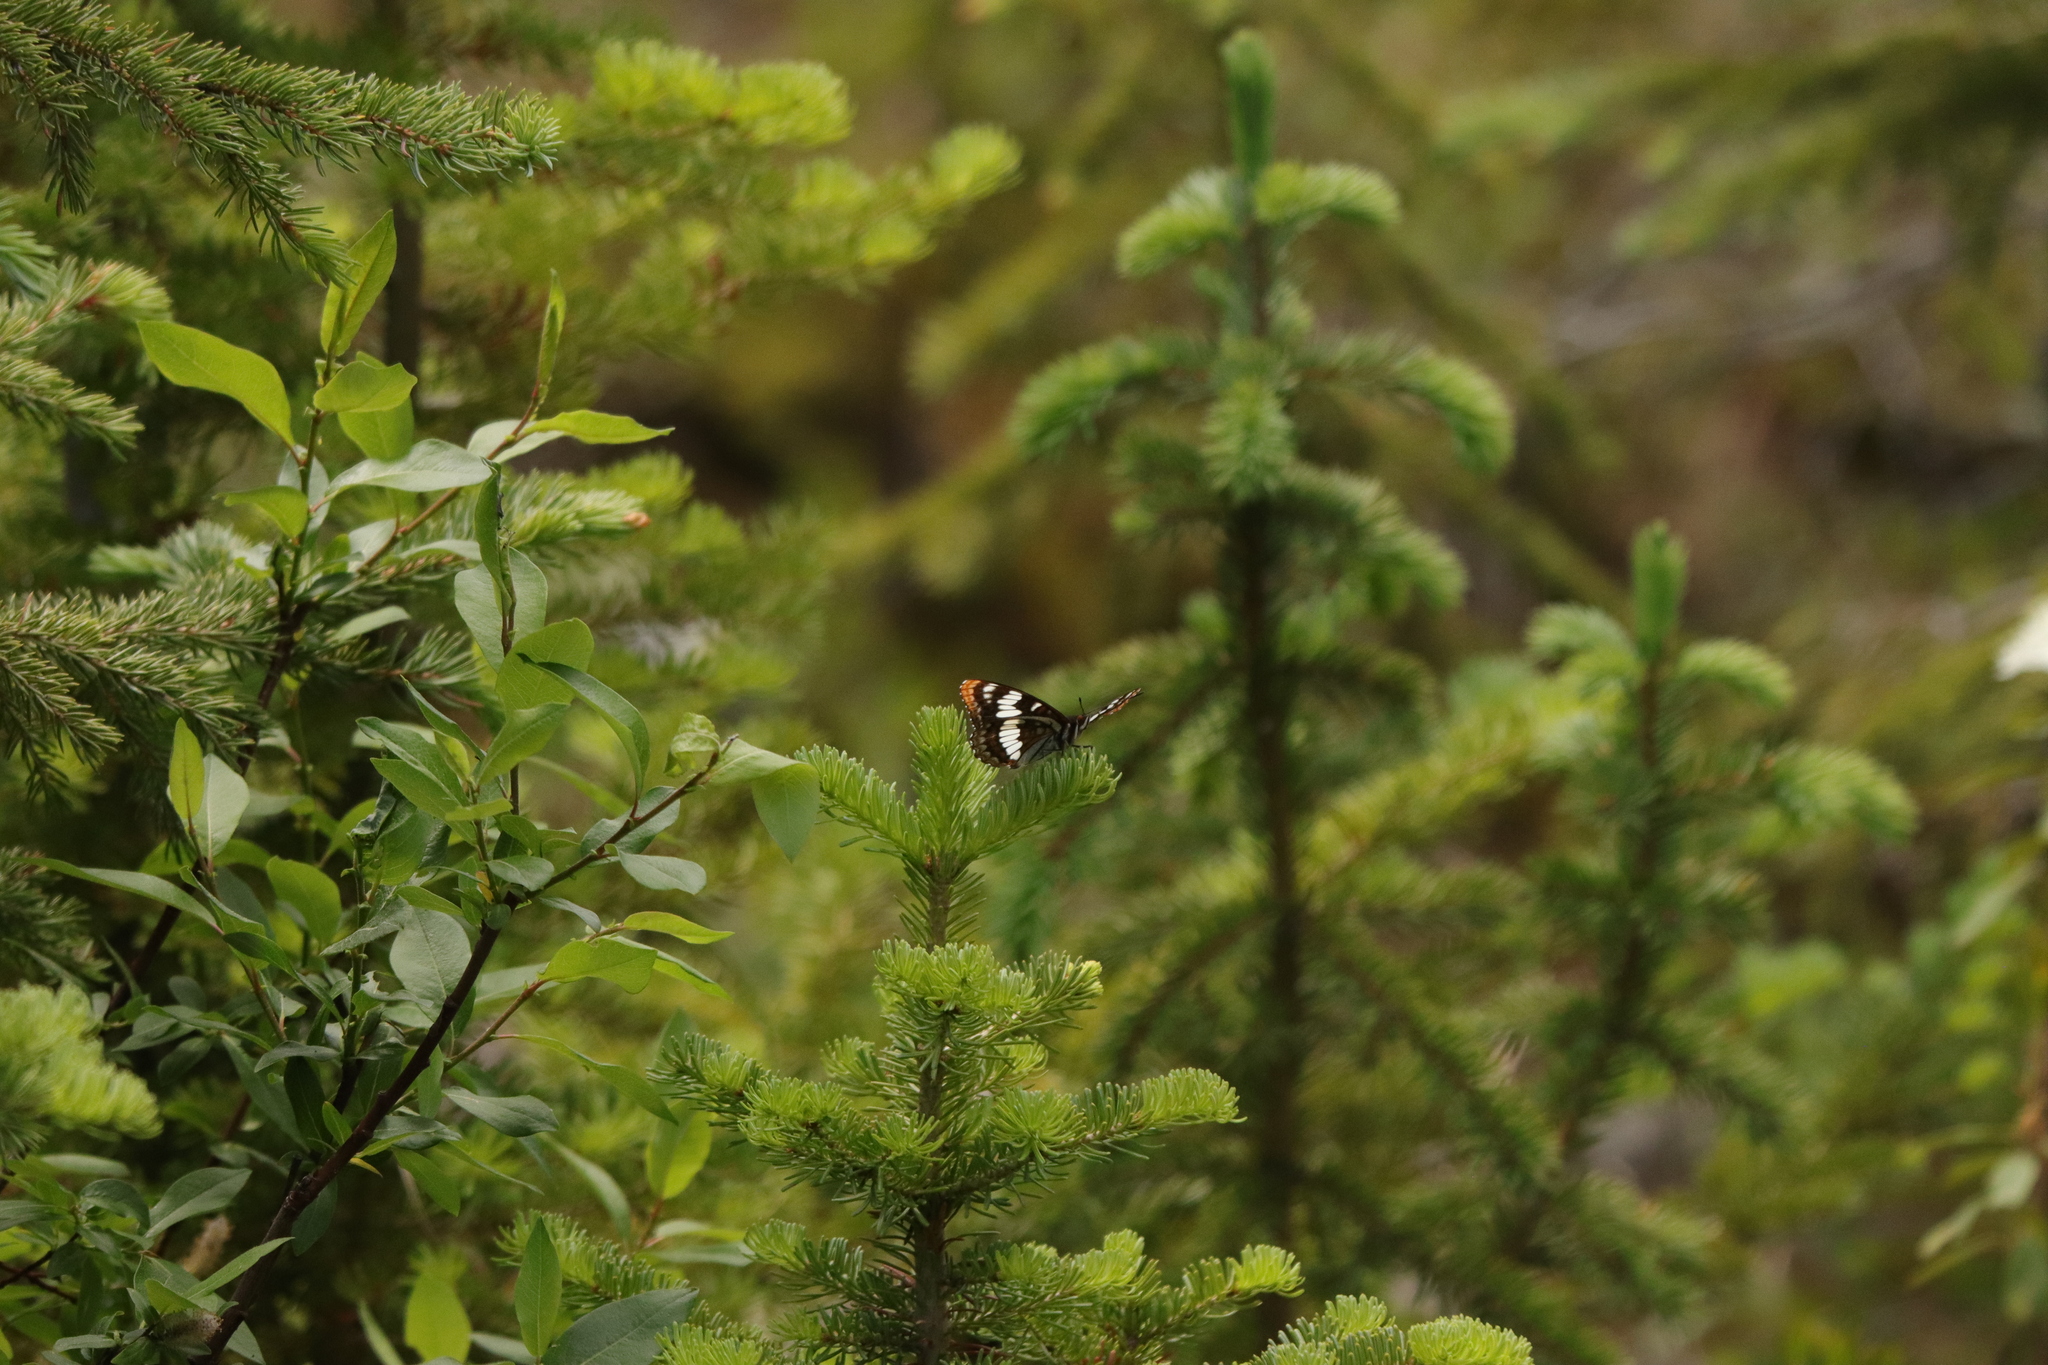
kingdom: Animalia
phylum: Arthropoda
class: Insecta
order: Lepidoptera
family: Nymphalidae
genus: Limenitis
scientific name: Limenitis lorquini
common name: Lorquin's admiral
